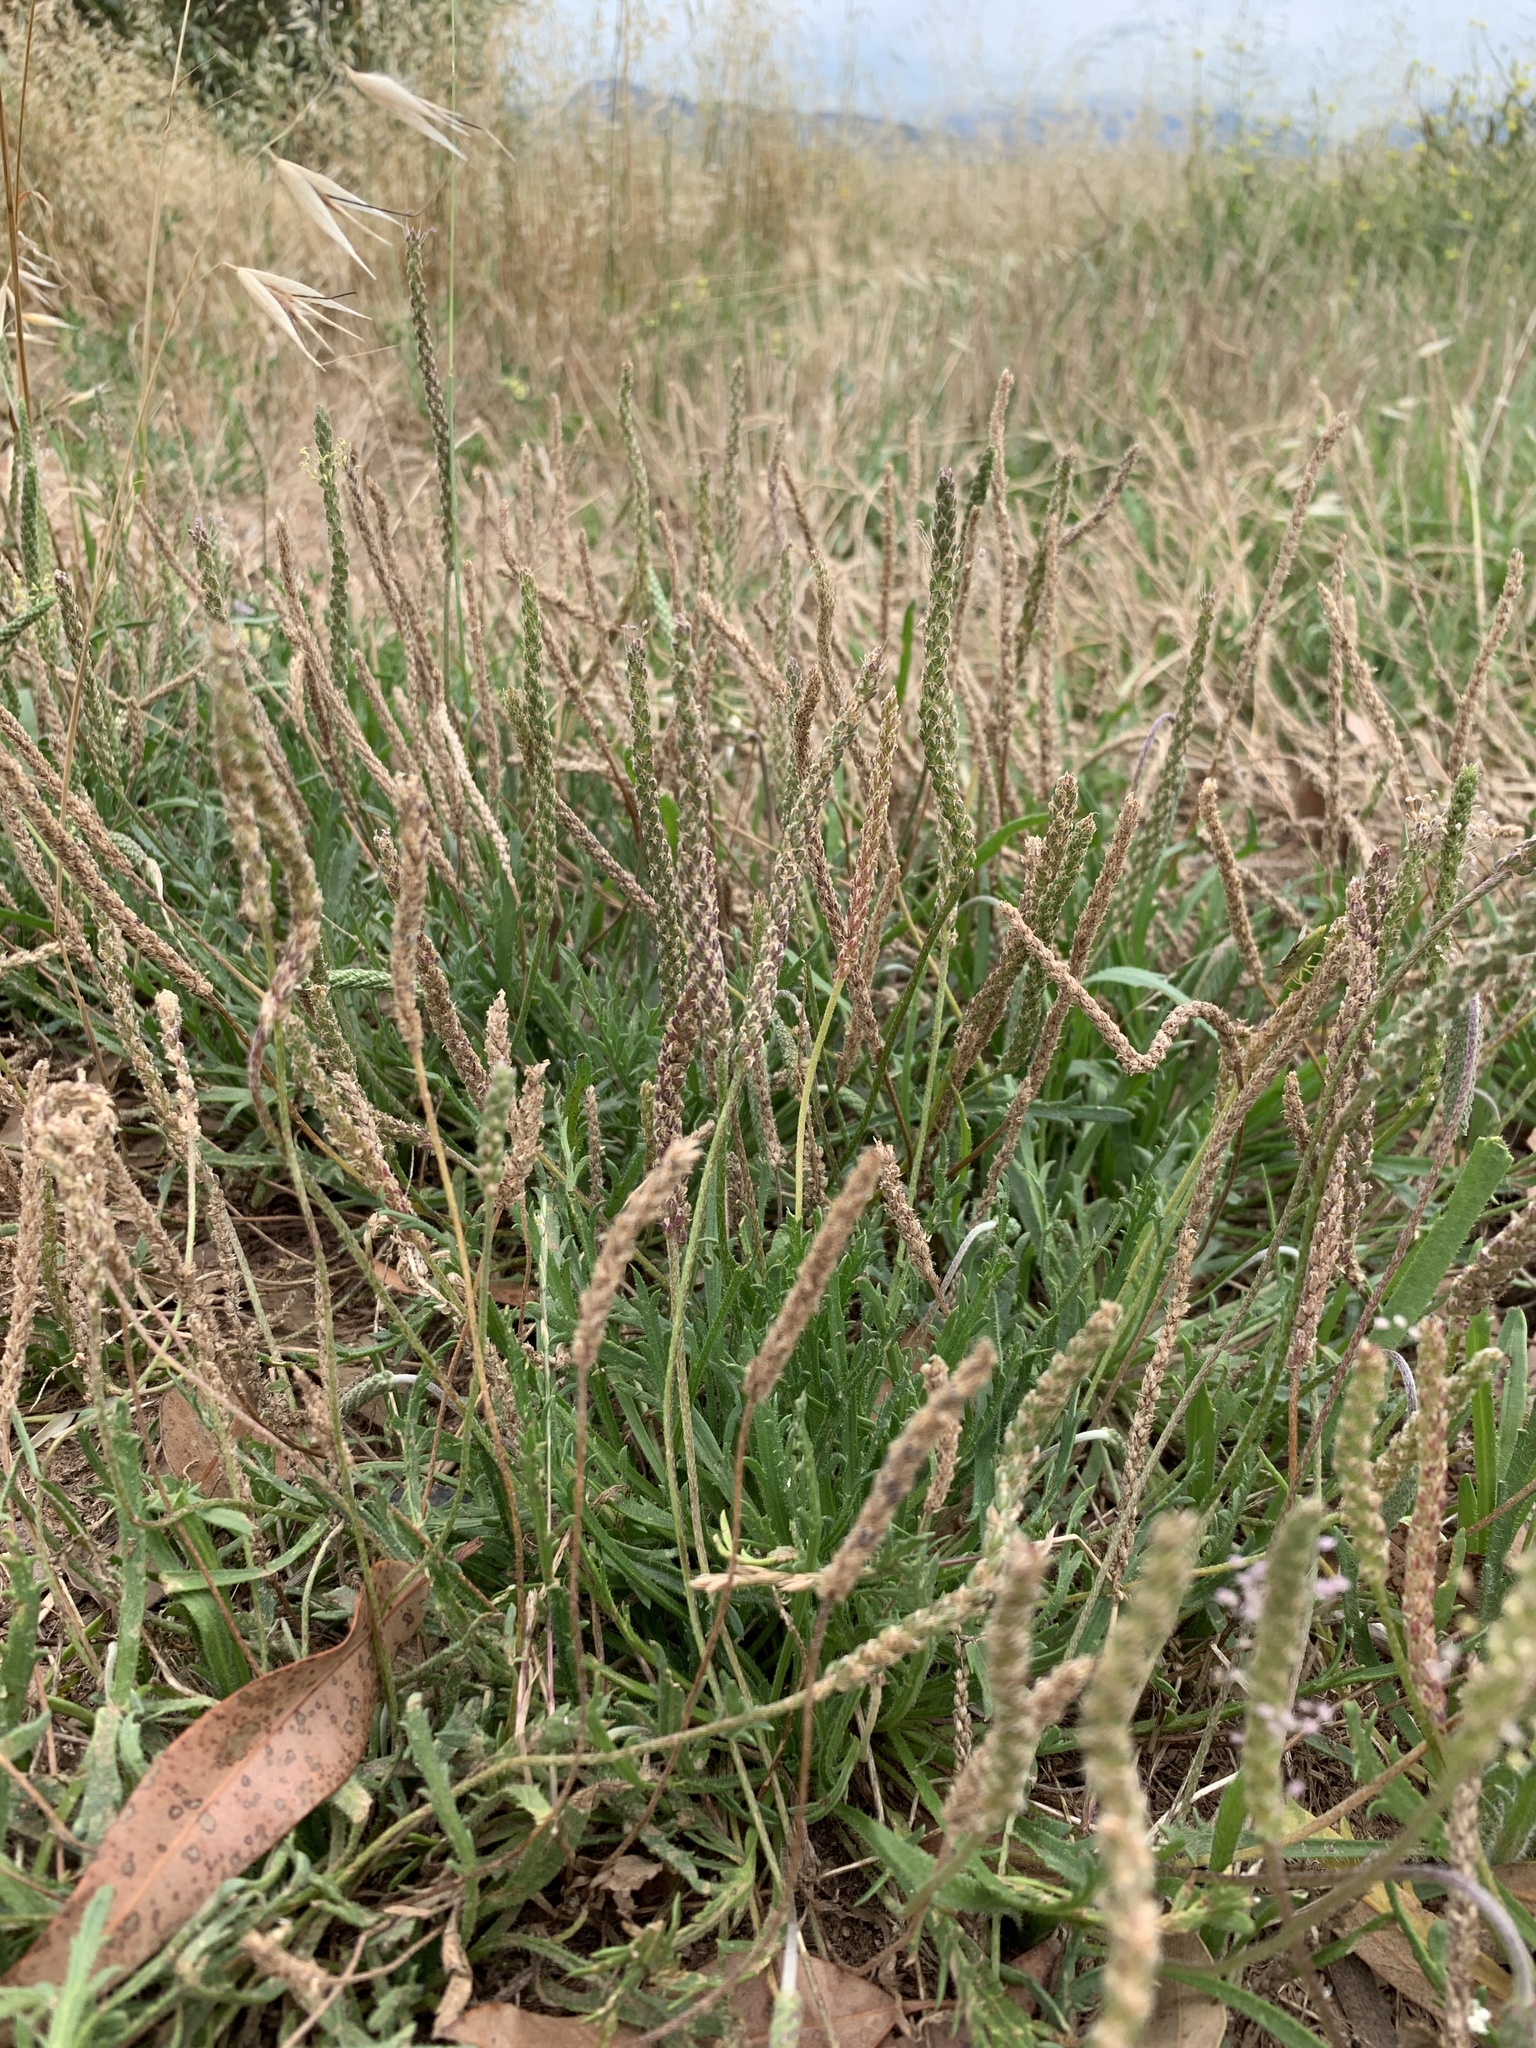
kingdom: Plantae
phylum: Tracheophyta
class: Magnoliopsida
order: Lamiales
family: Plantaginaceae
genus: Plantago
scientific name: Plantago coronopus
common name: Buck's-horn plantain
